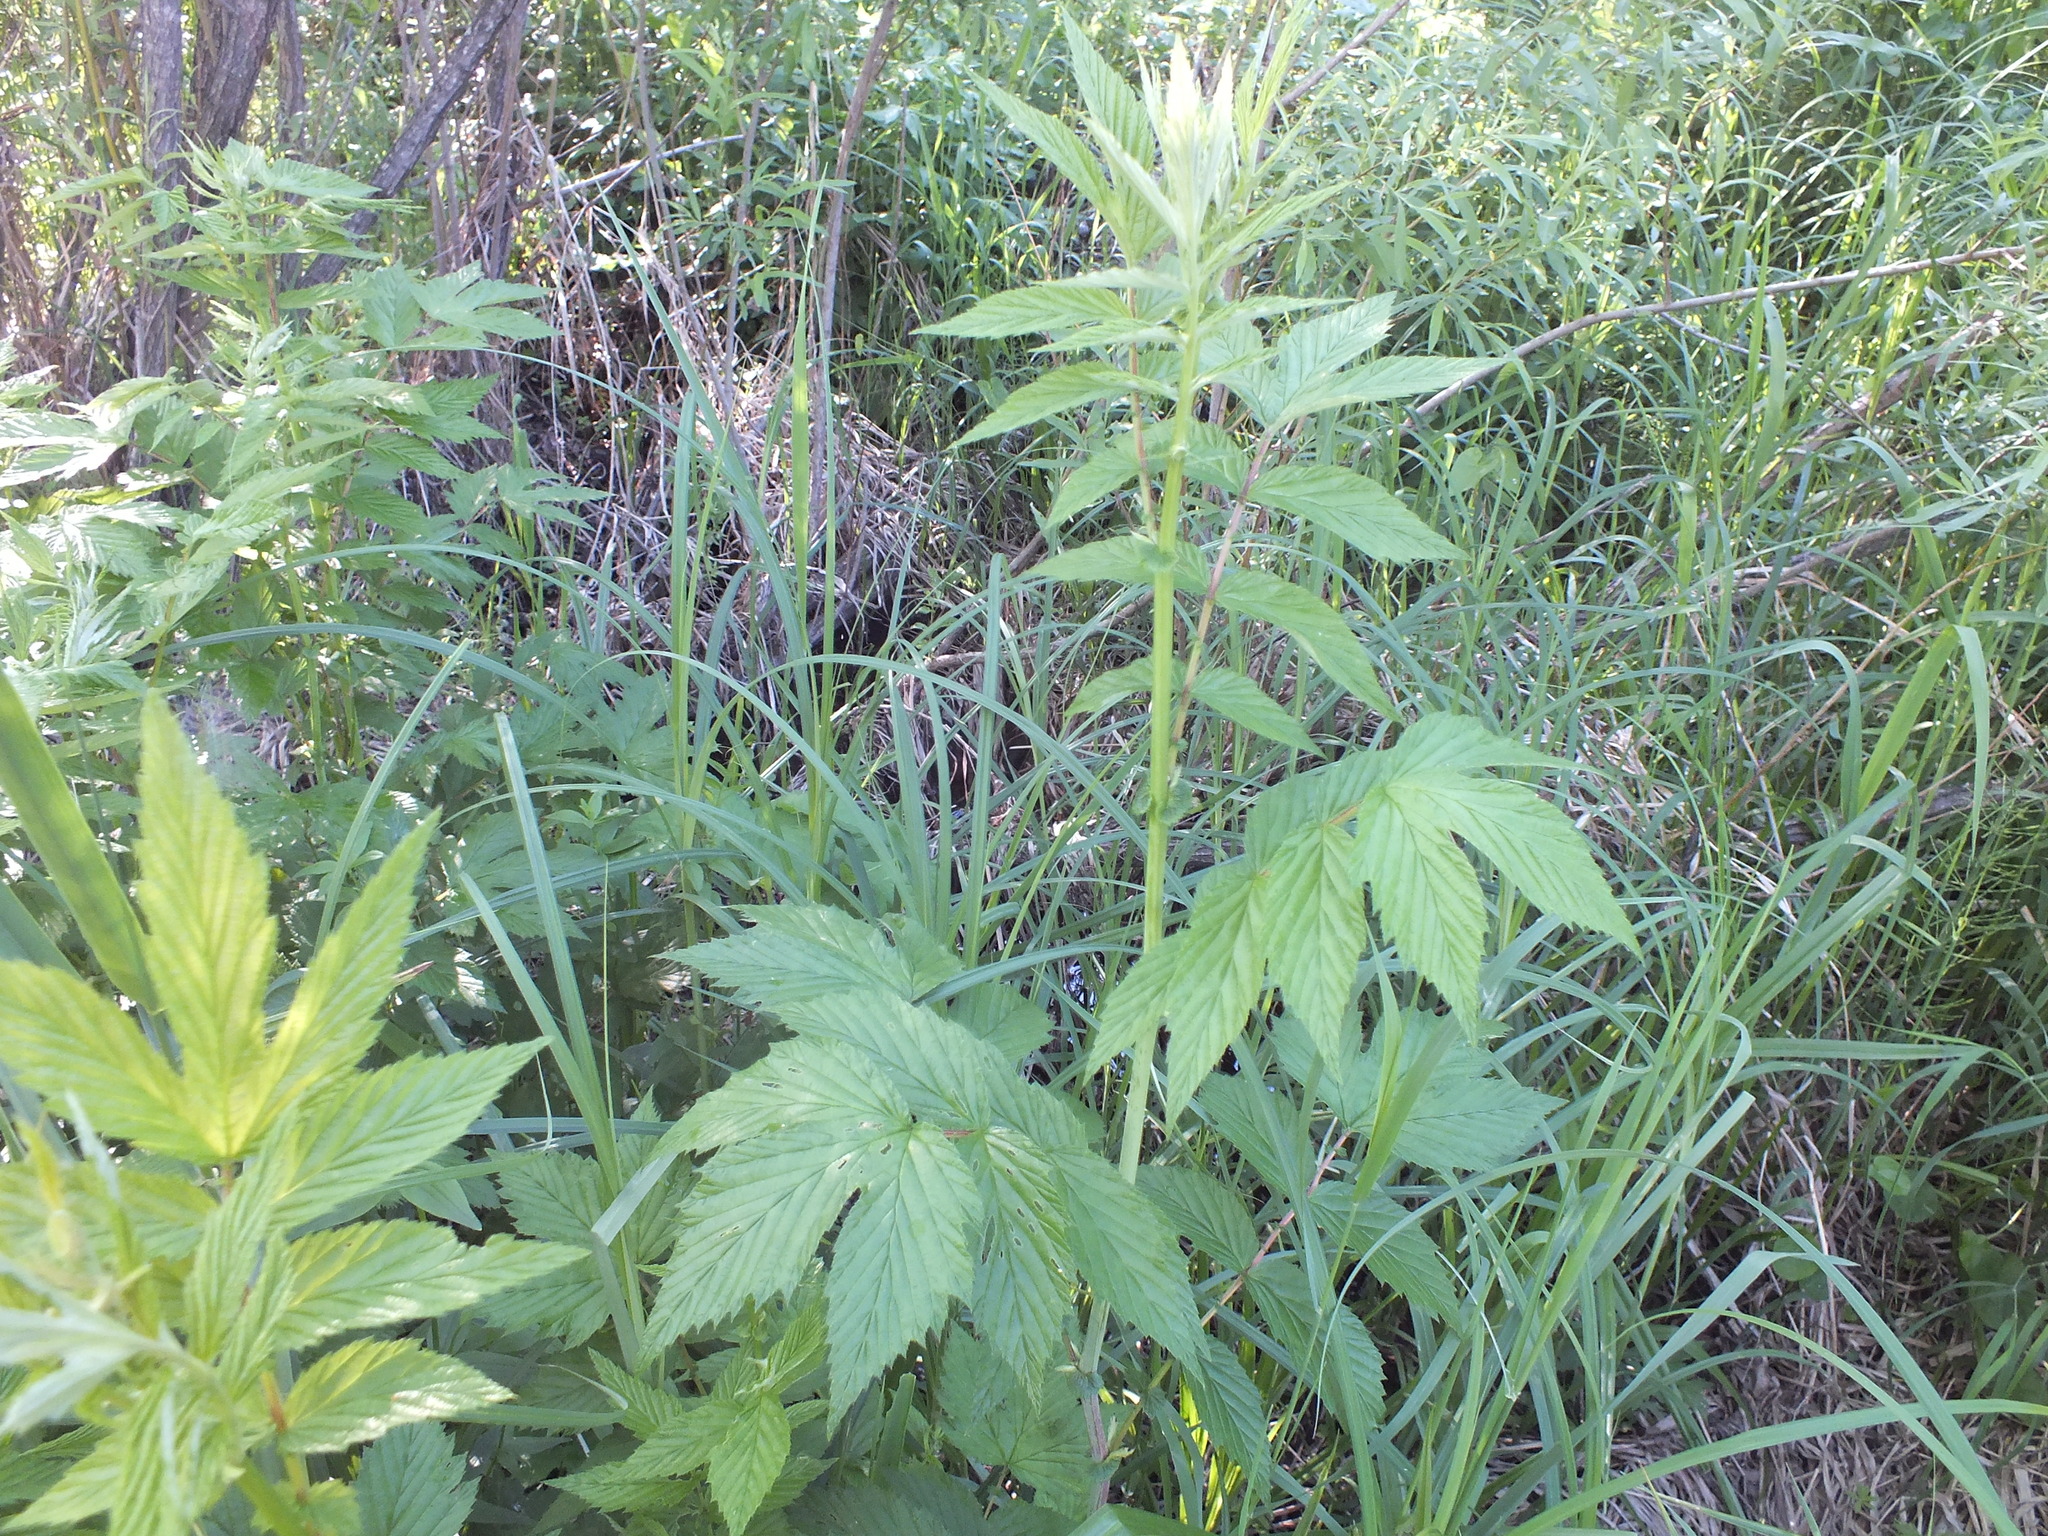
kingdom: Plantae
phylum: Tracheophyta
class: Magnoliopsida
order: Rosales
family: Rosaceae
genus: Filipendula
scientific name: Filipendula ulmaria
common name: Meadowsweet
